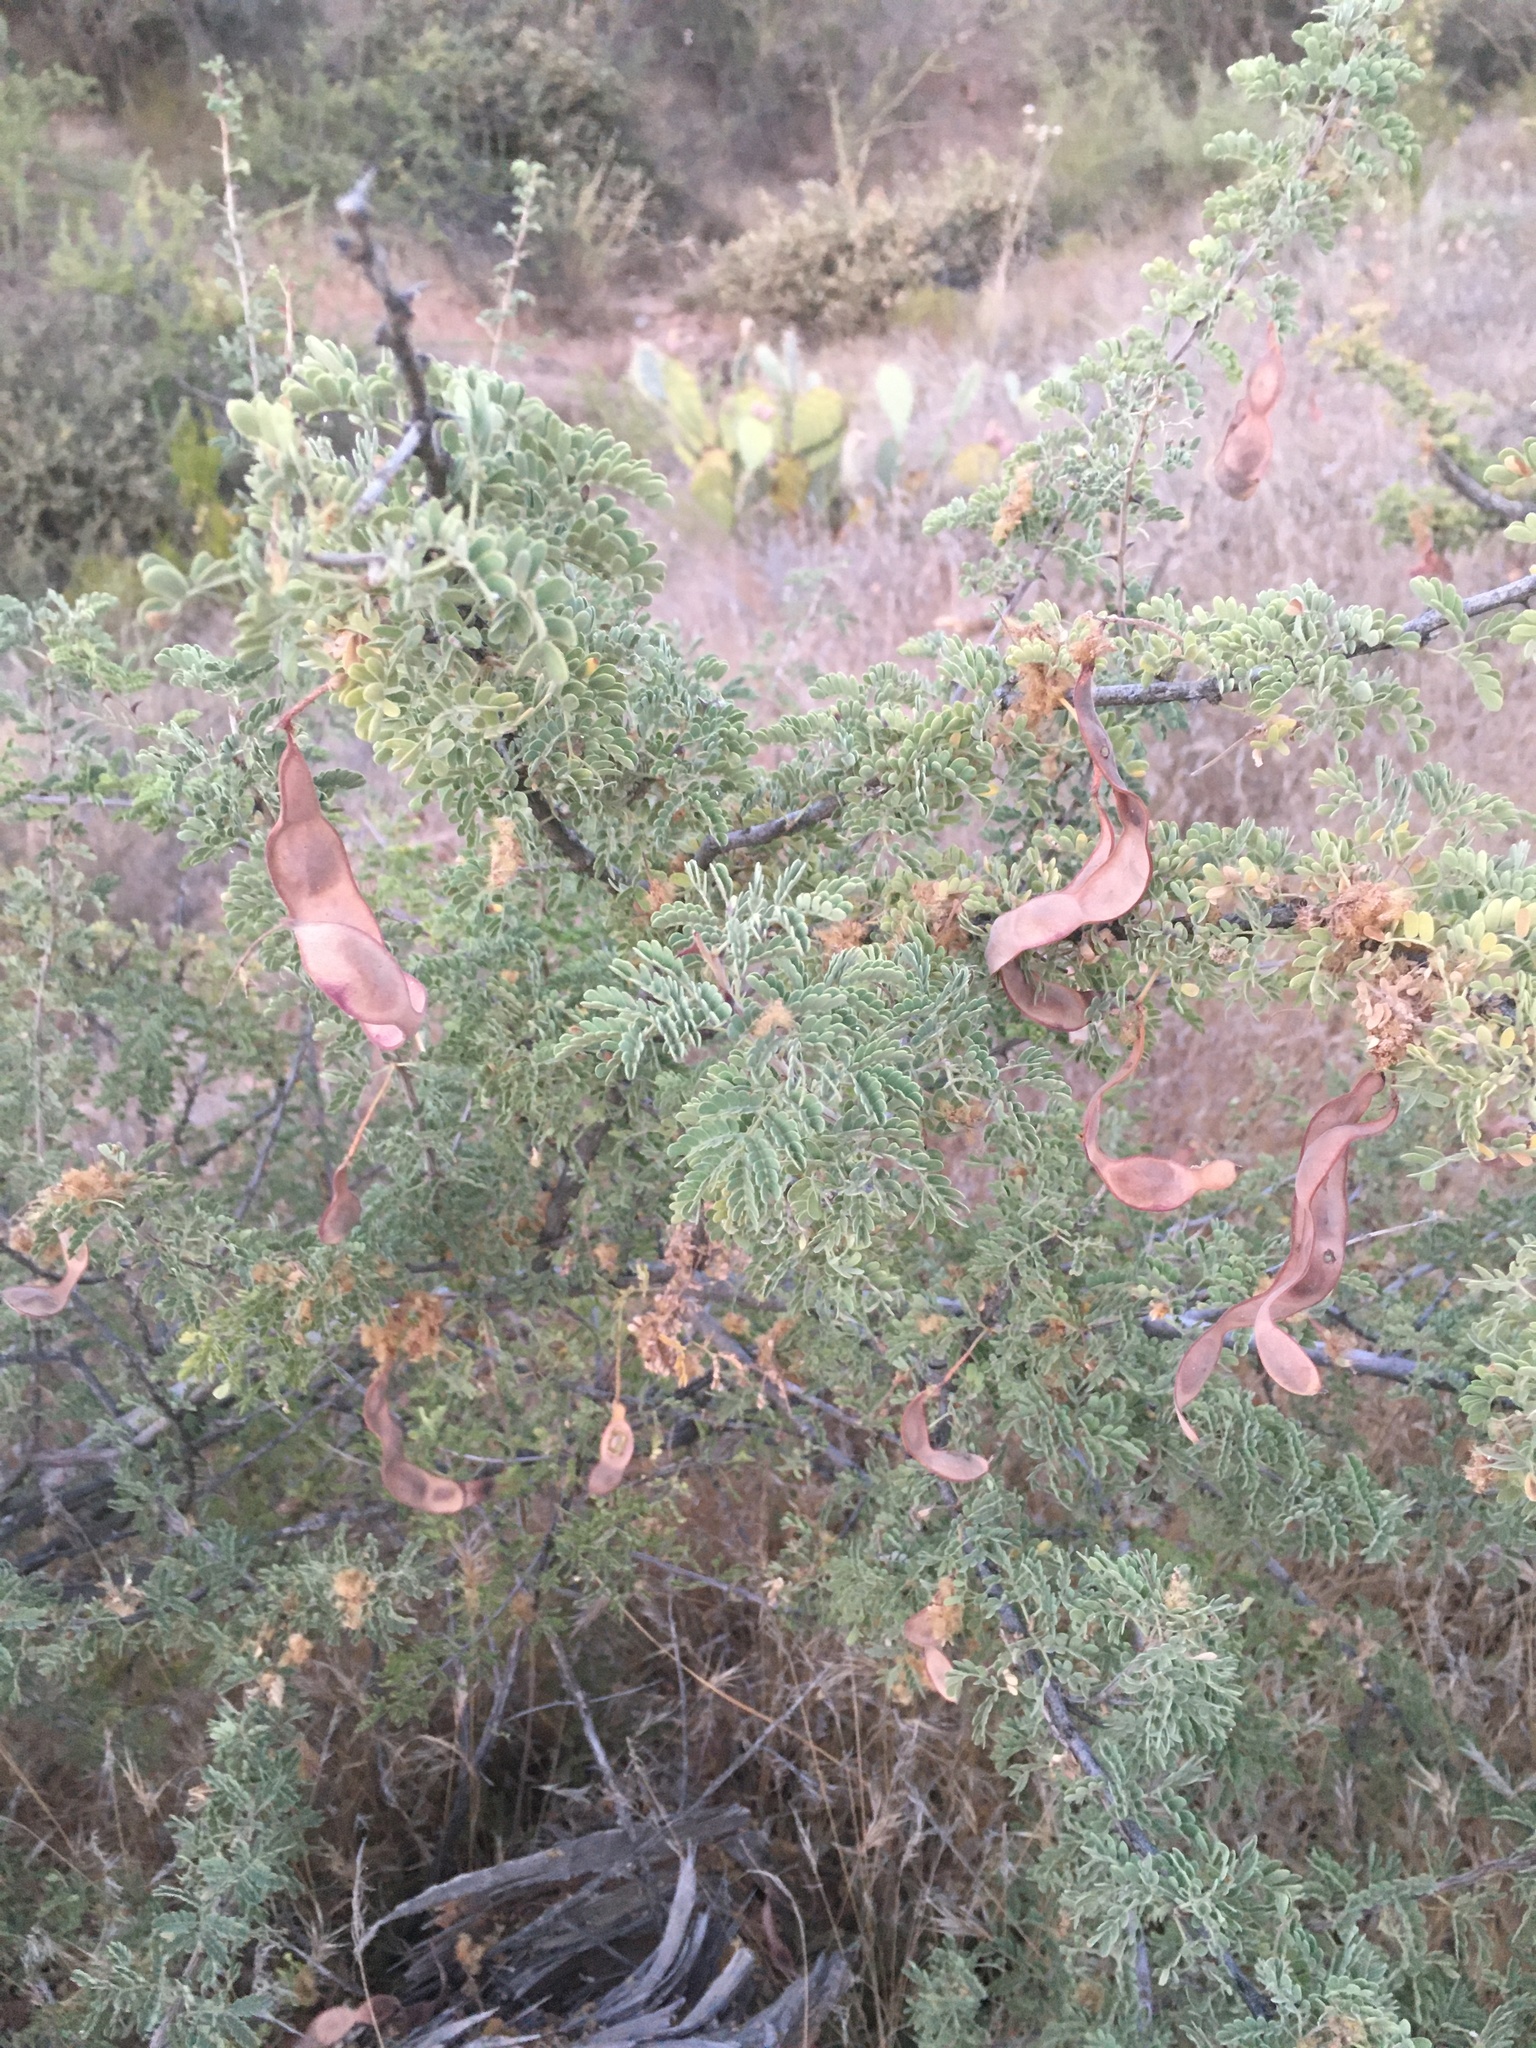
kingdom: Plantae
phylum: Tracheophyta
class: Magnoliopsida
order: Fabales
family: Fabaceae
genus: Senegalia
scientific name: Senegalia greggii
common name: Texas-mimosa
